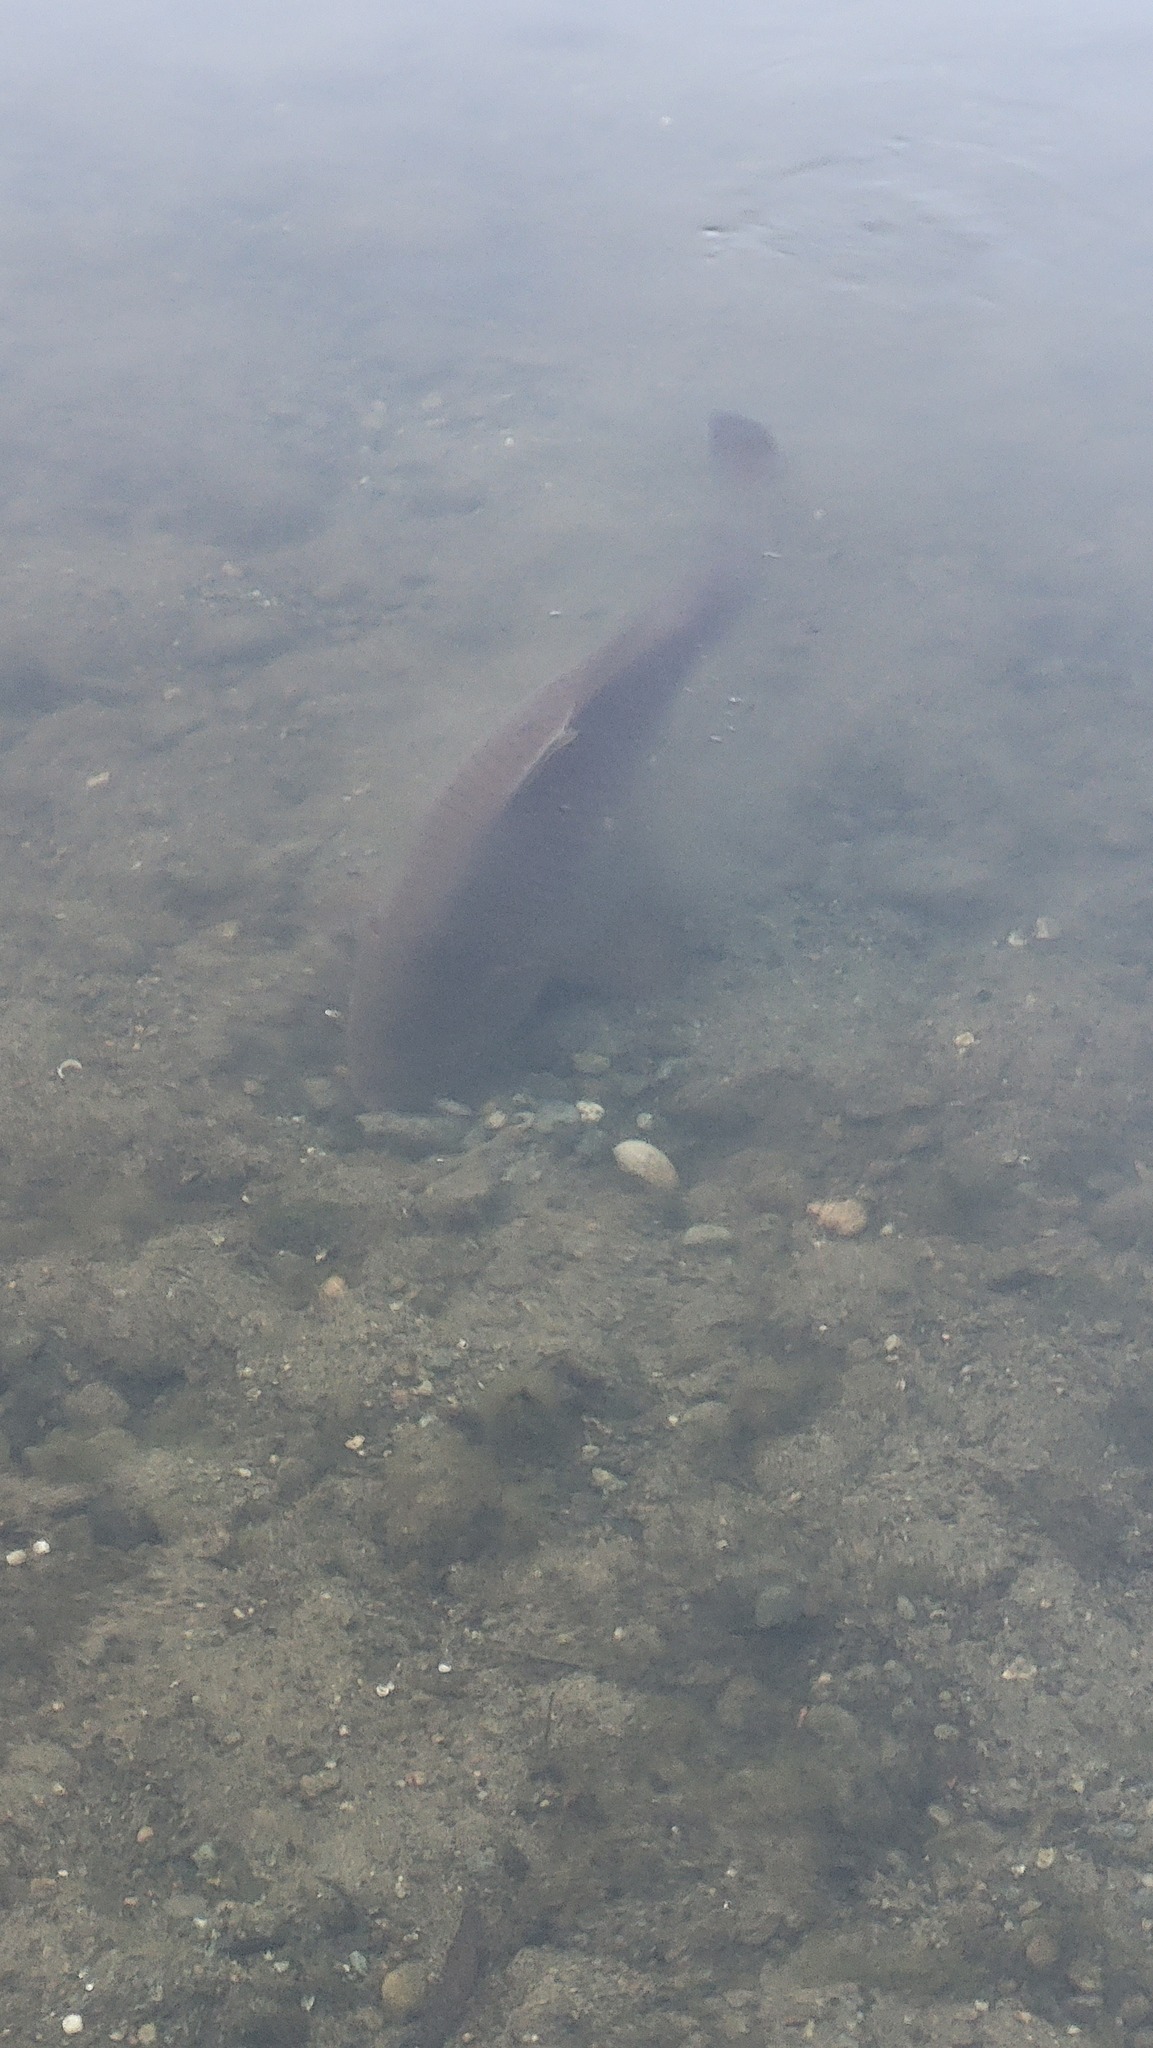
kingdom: Animalia
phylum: Chordata
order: Cypriniformes
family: Cyprinidae
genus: Cyprinus
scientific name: Cyprinus carpio
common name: Common carp
